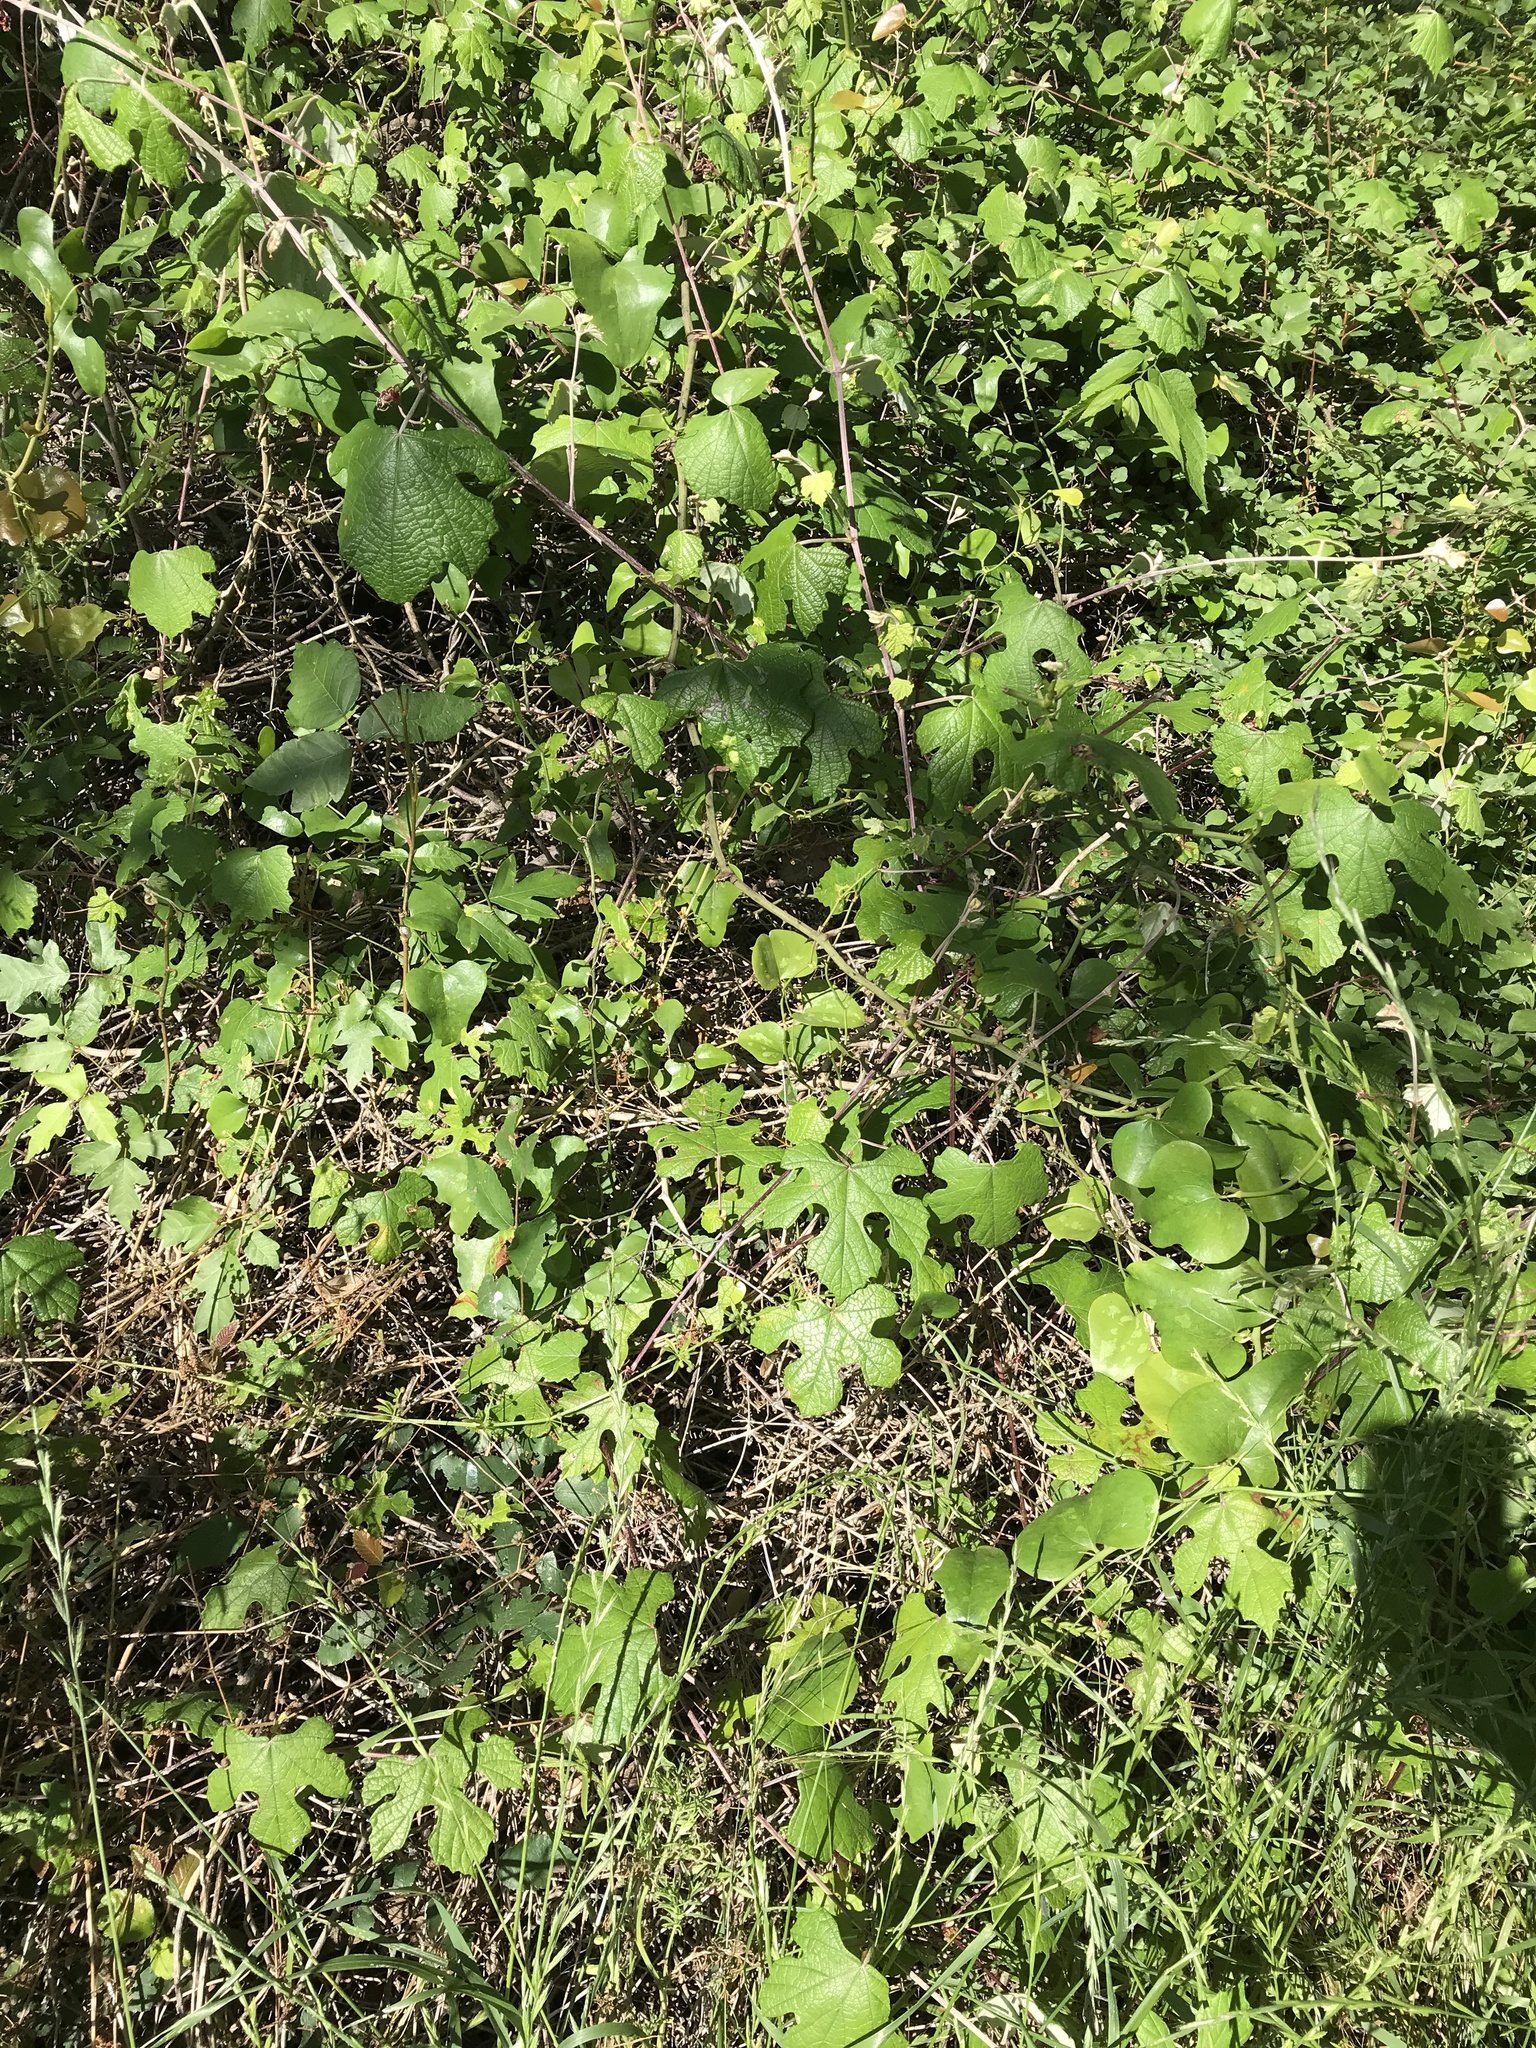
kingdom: Plantae
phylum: Tracheophyta
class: Magnoliopsida
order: Vitales
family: Vitaceae
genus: Vitis
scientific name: Vitis mustangensis
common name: Mustang grape
